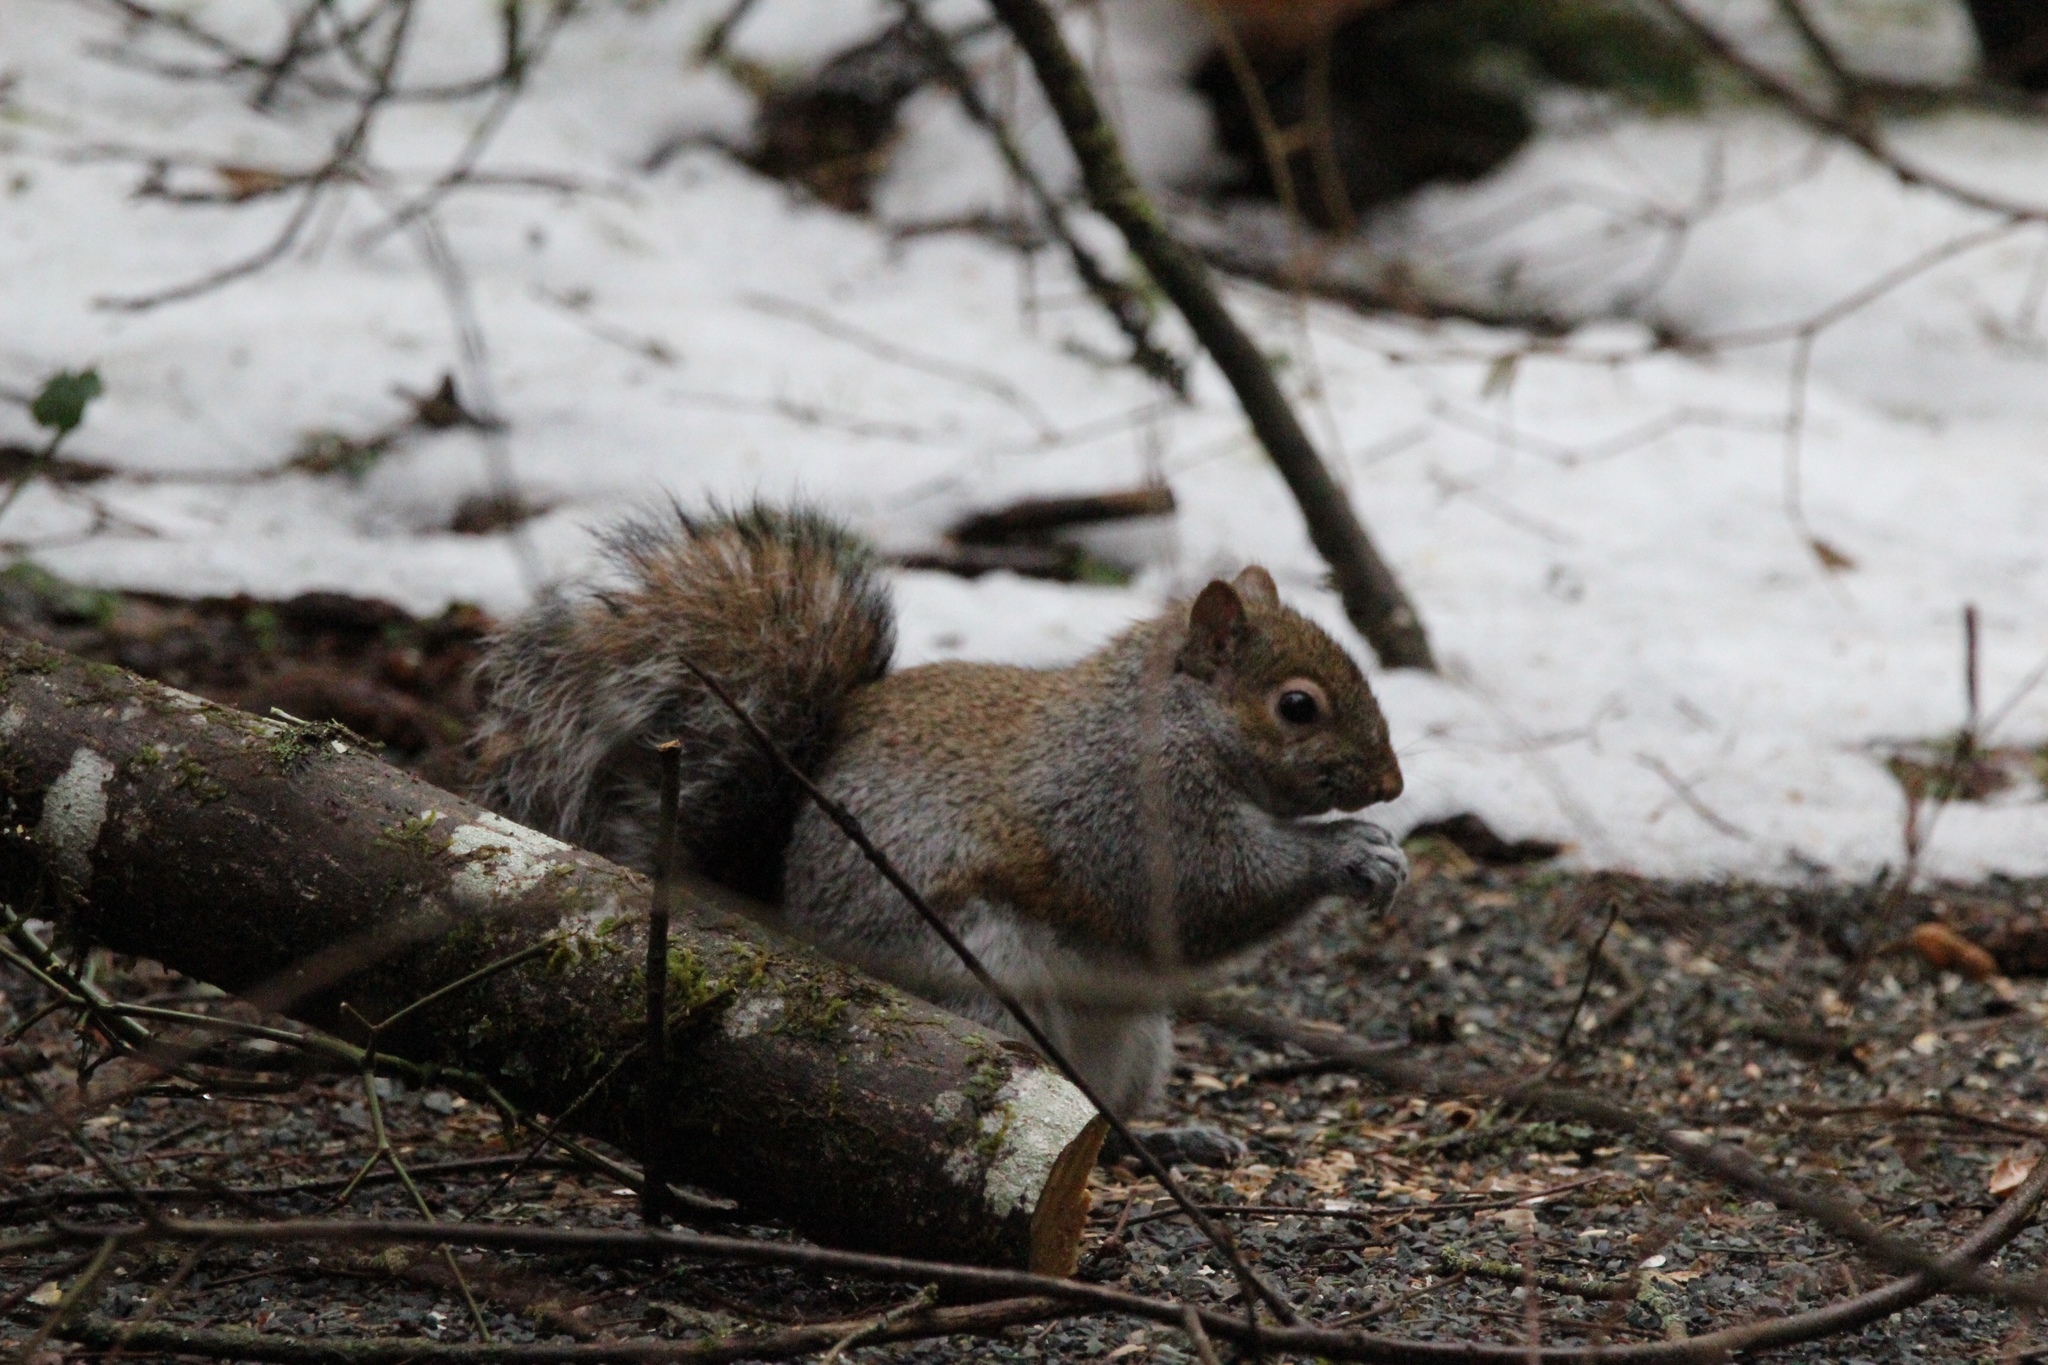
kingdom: Animalia
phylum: Chordata
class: Mammalia
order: Rodentia
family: Sciuridae
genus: Sciurus
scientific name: Sciurus carolinensis
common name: Eastern gray squirrel
